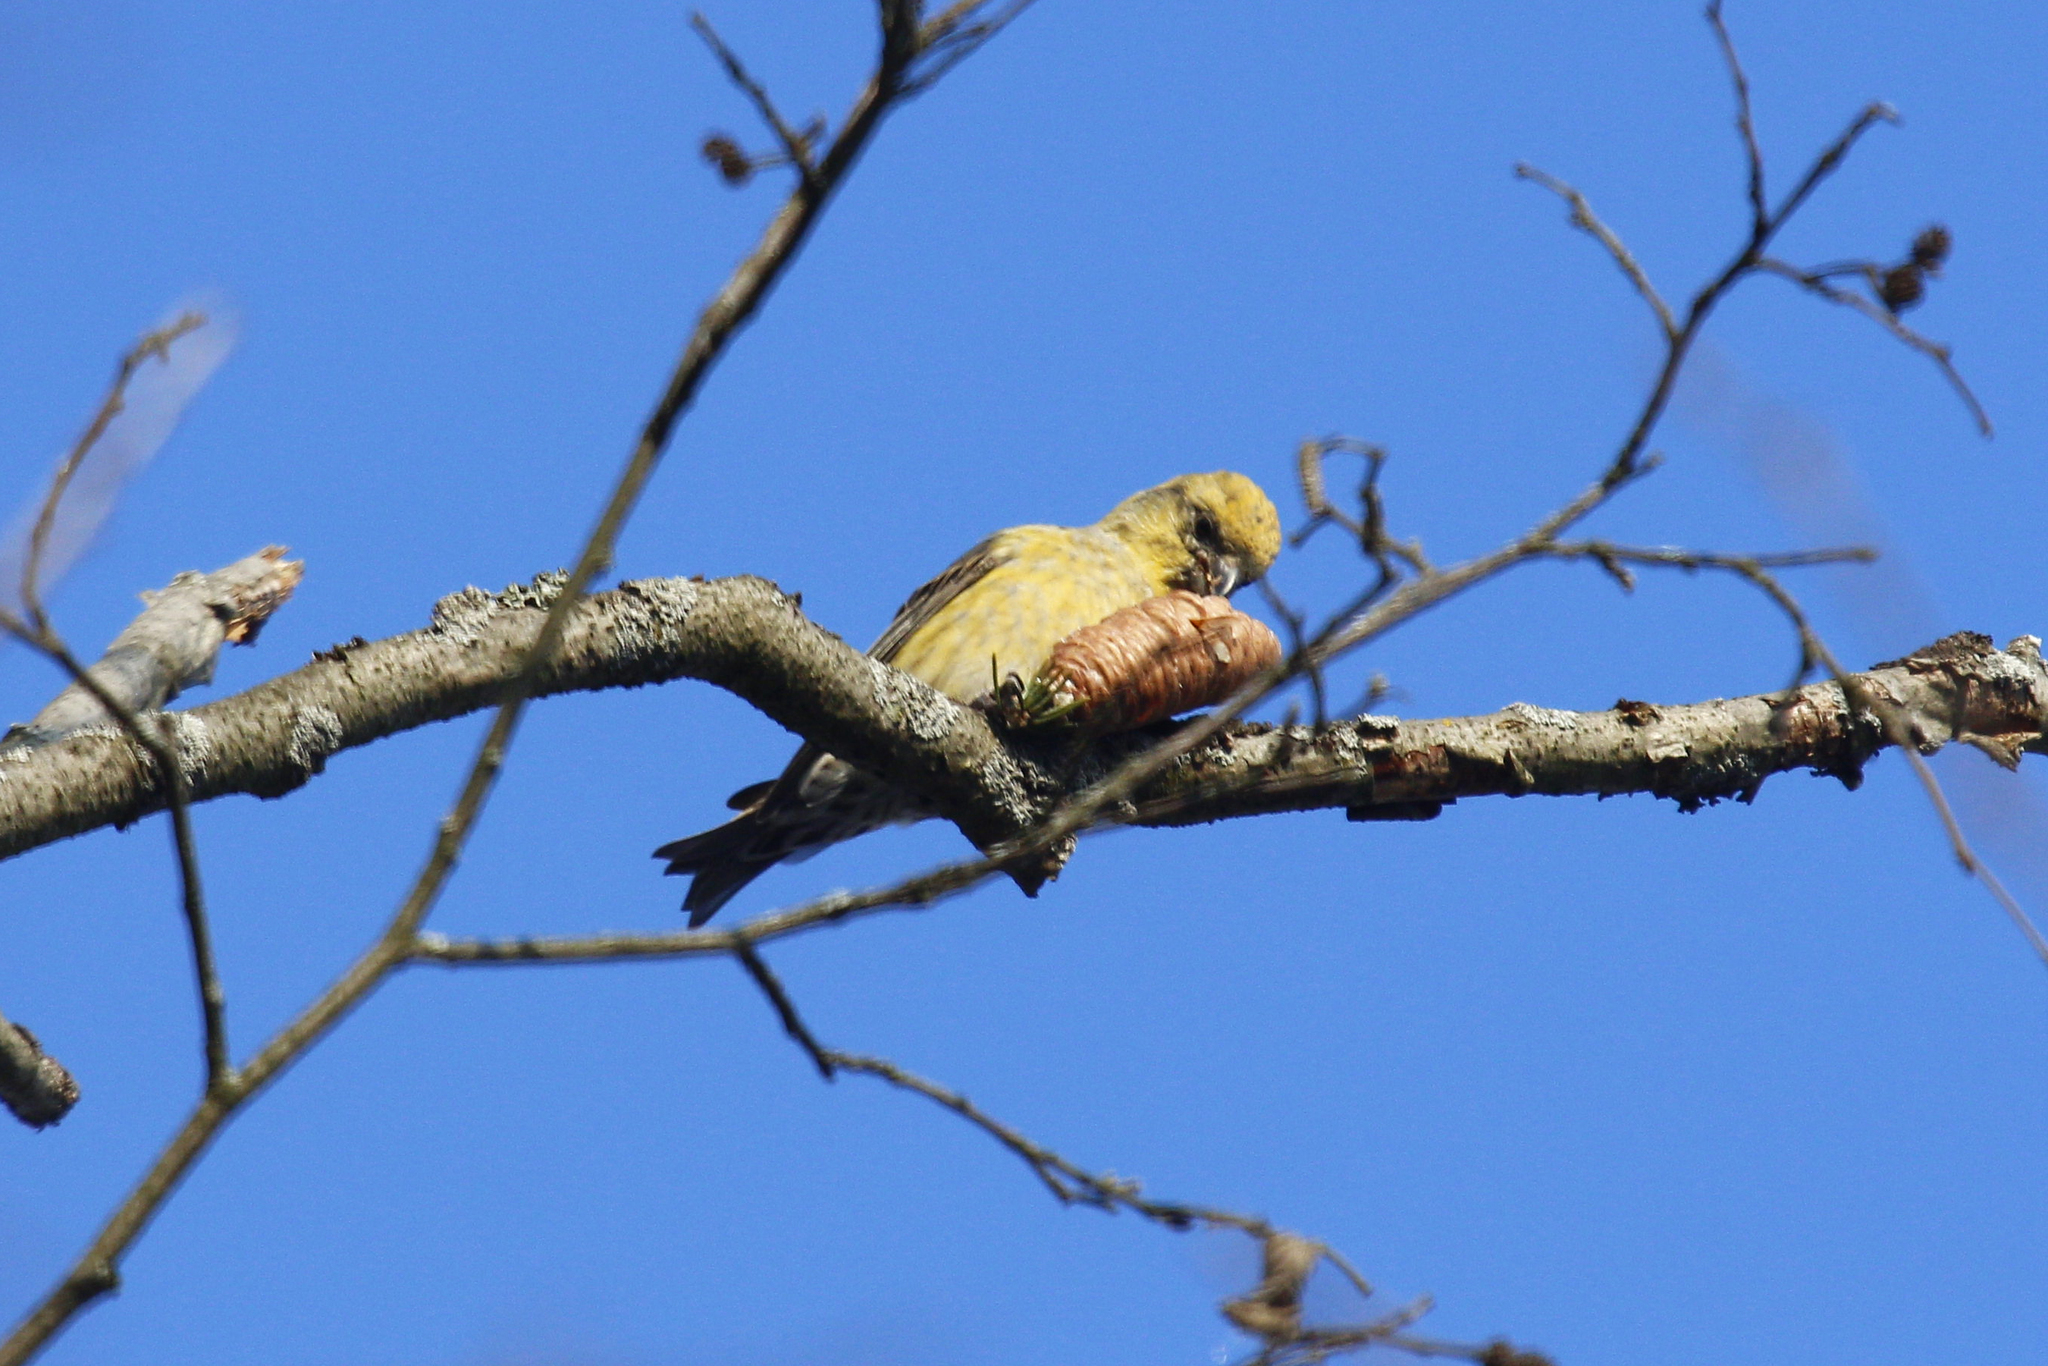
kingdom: Animalia
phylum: Chordata
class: Aves
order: Passeriformes
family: Fringillidae
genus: Loxia
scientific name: Loxia curvirostra
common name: Red crossbill
